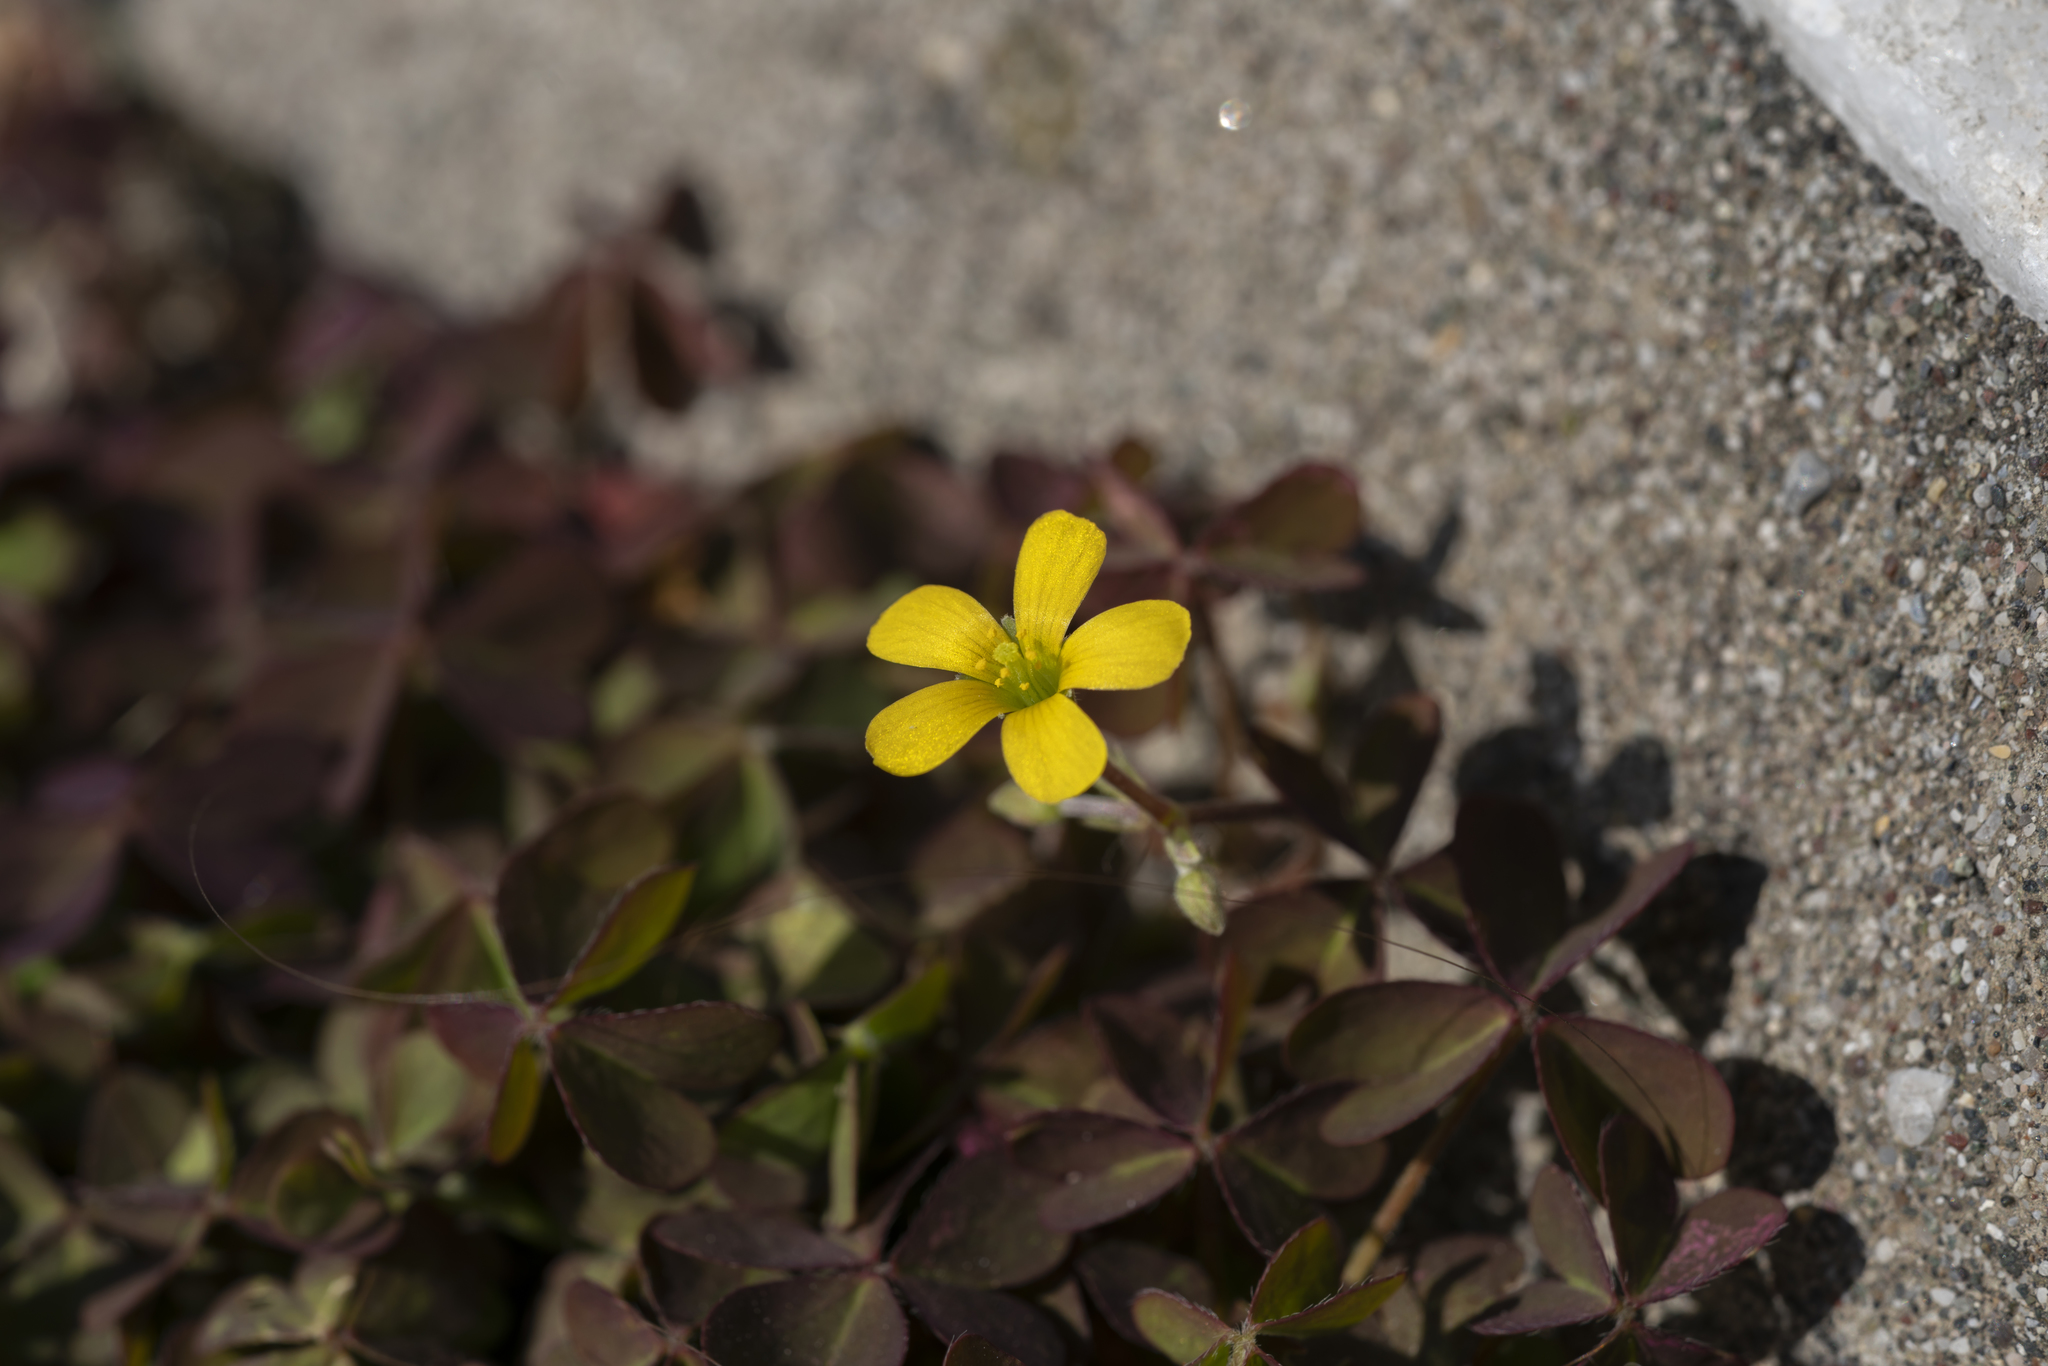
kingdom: Plantae
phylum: Tracheophyta
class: Magnoliopsida
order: Oxalidales
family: Oxalidaceae
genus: Oxalis
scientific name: Oxalis corniculata
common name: Procumbent yellow-sorrel
